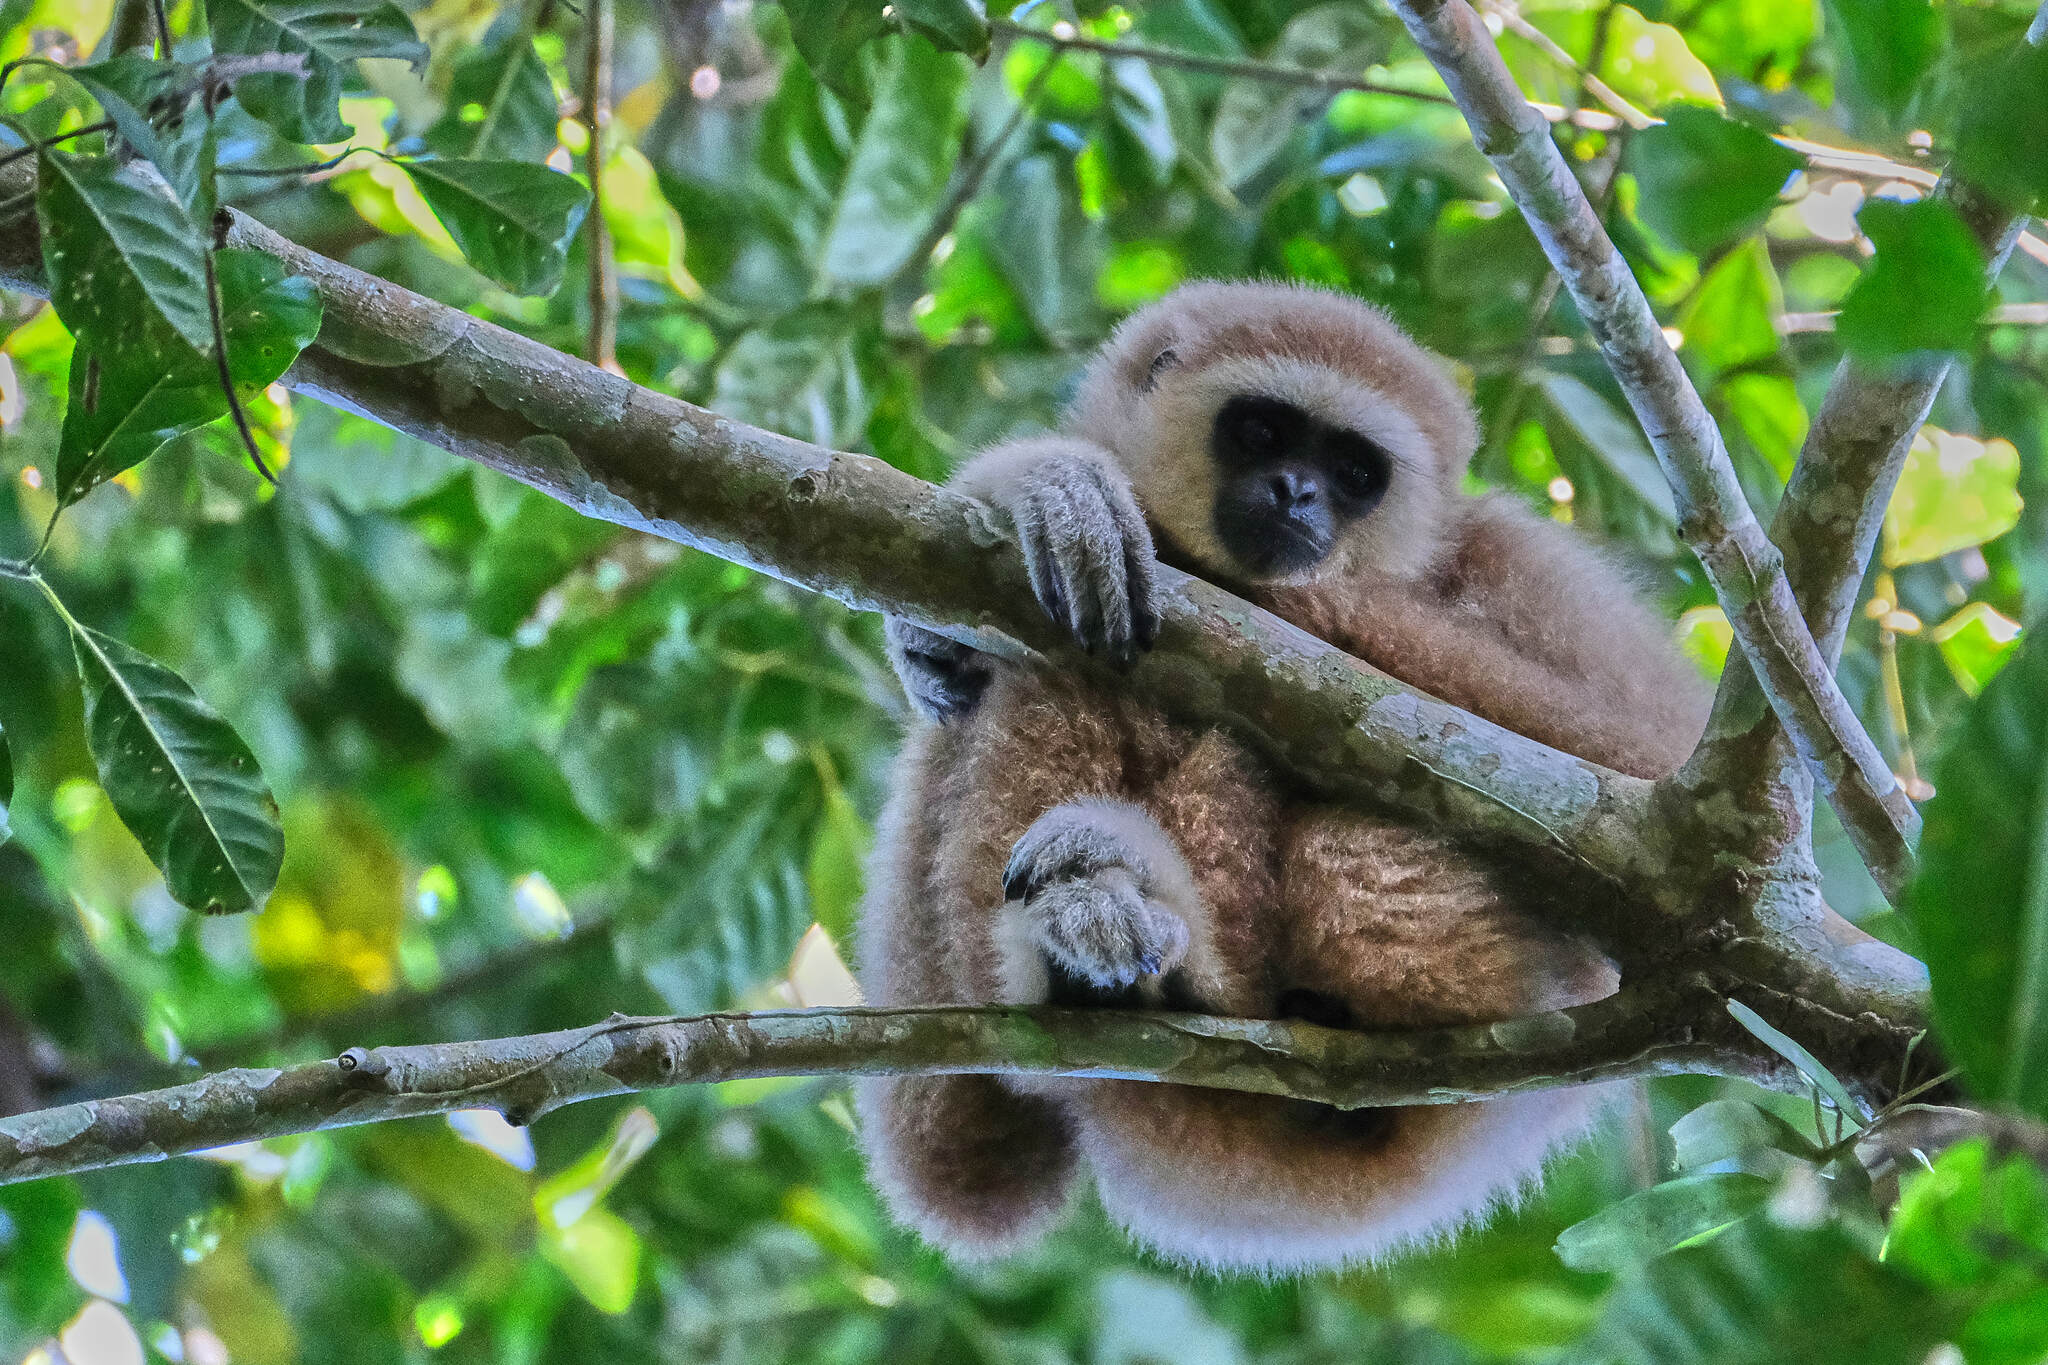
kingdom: Animalia
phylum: Chordata
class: Mammalia
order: Primates
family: Hylobatidae
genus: Hylobates
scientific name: Hylobates lar
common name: Lar gibbon
